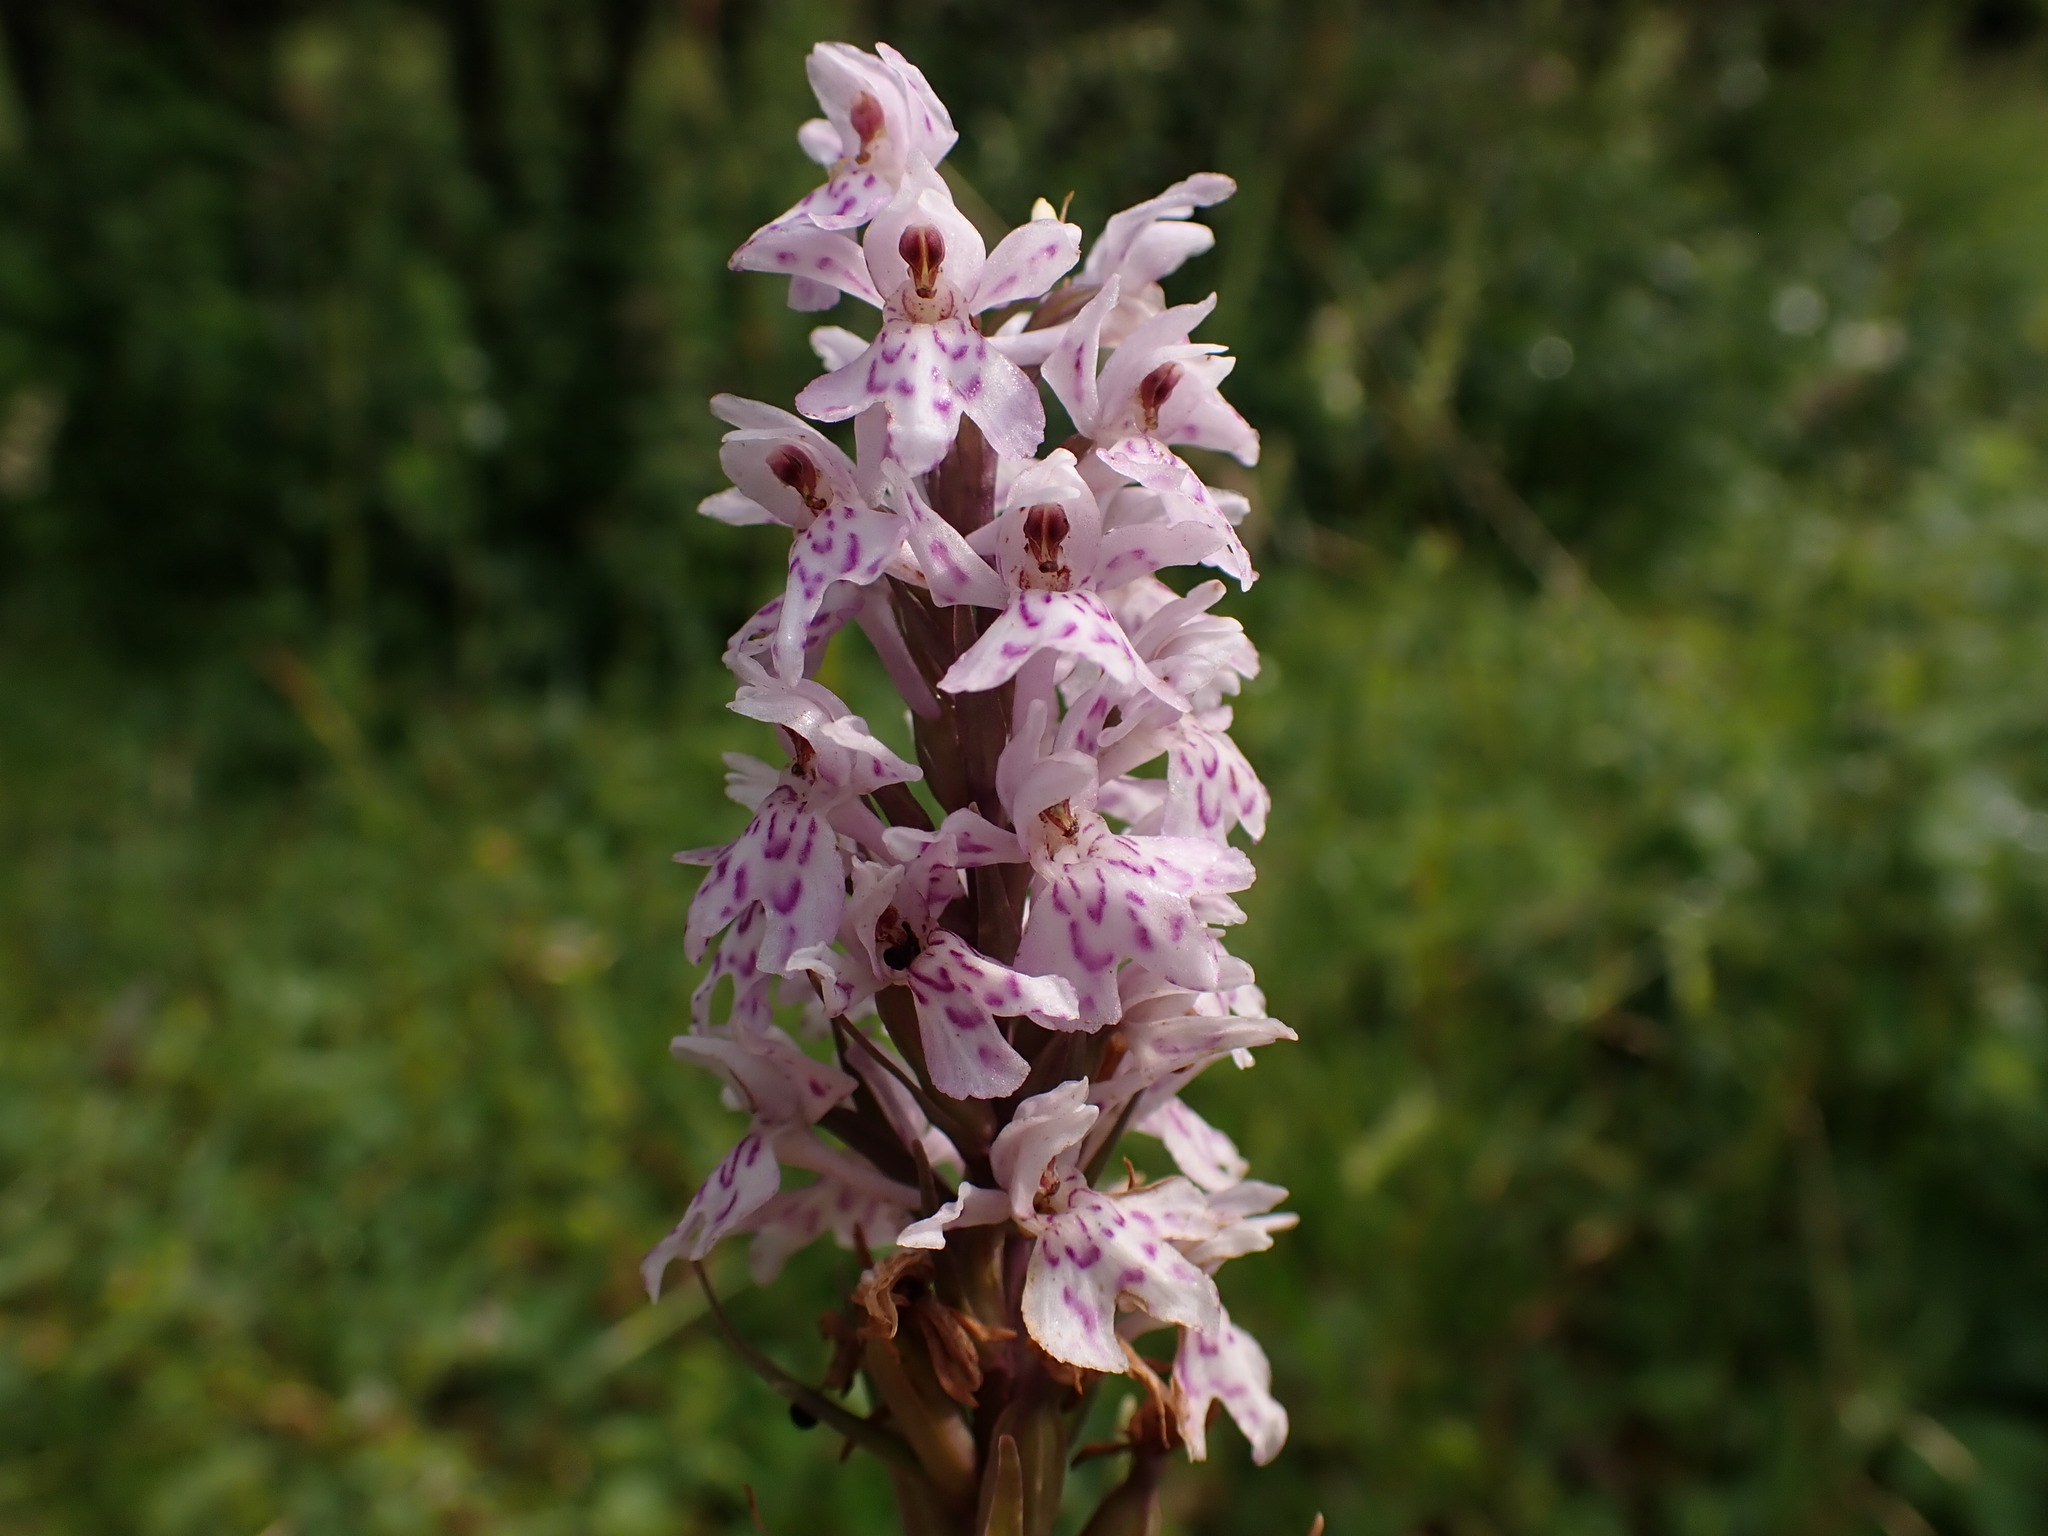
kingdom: Plantae
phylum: Tracheophyta
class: Liliopsida
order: Asparagales
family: Orchidaceae
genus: Dactylorhiza
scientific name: Dactylorhiza maculata
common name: Heath spotted-orchid
